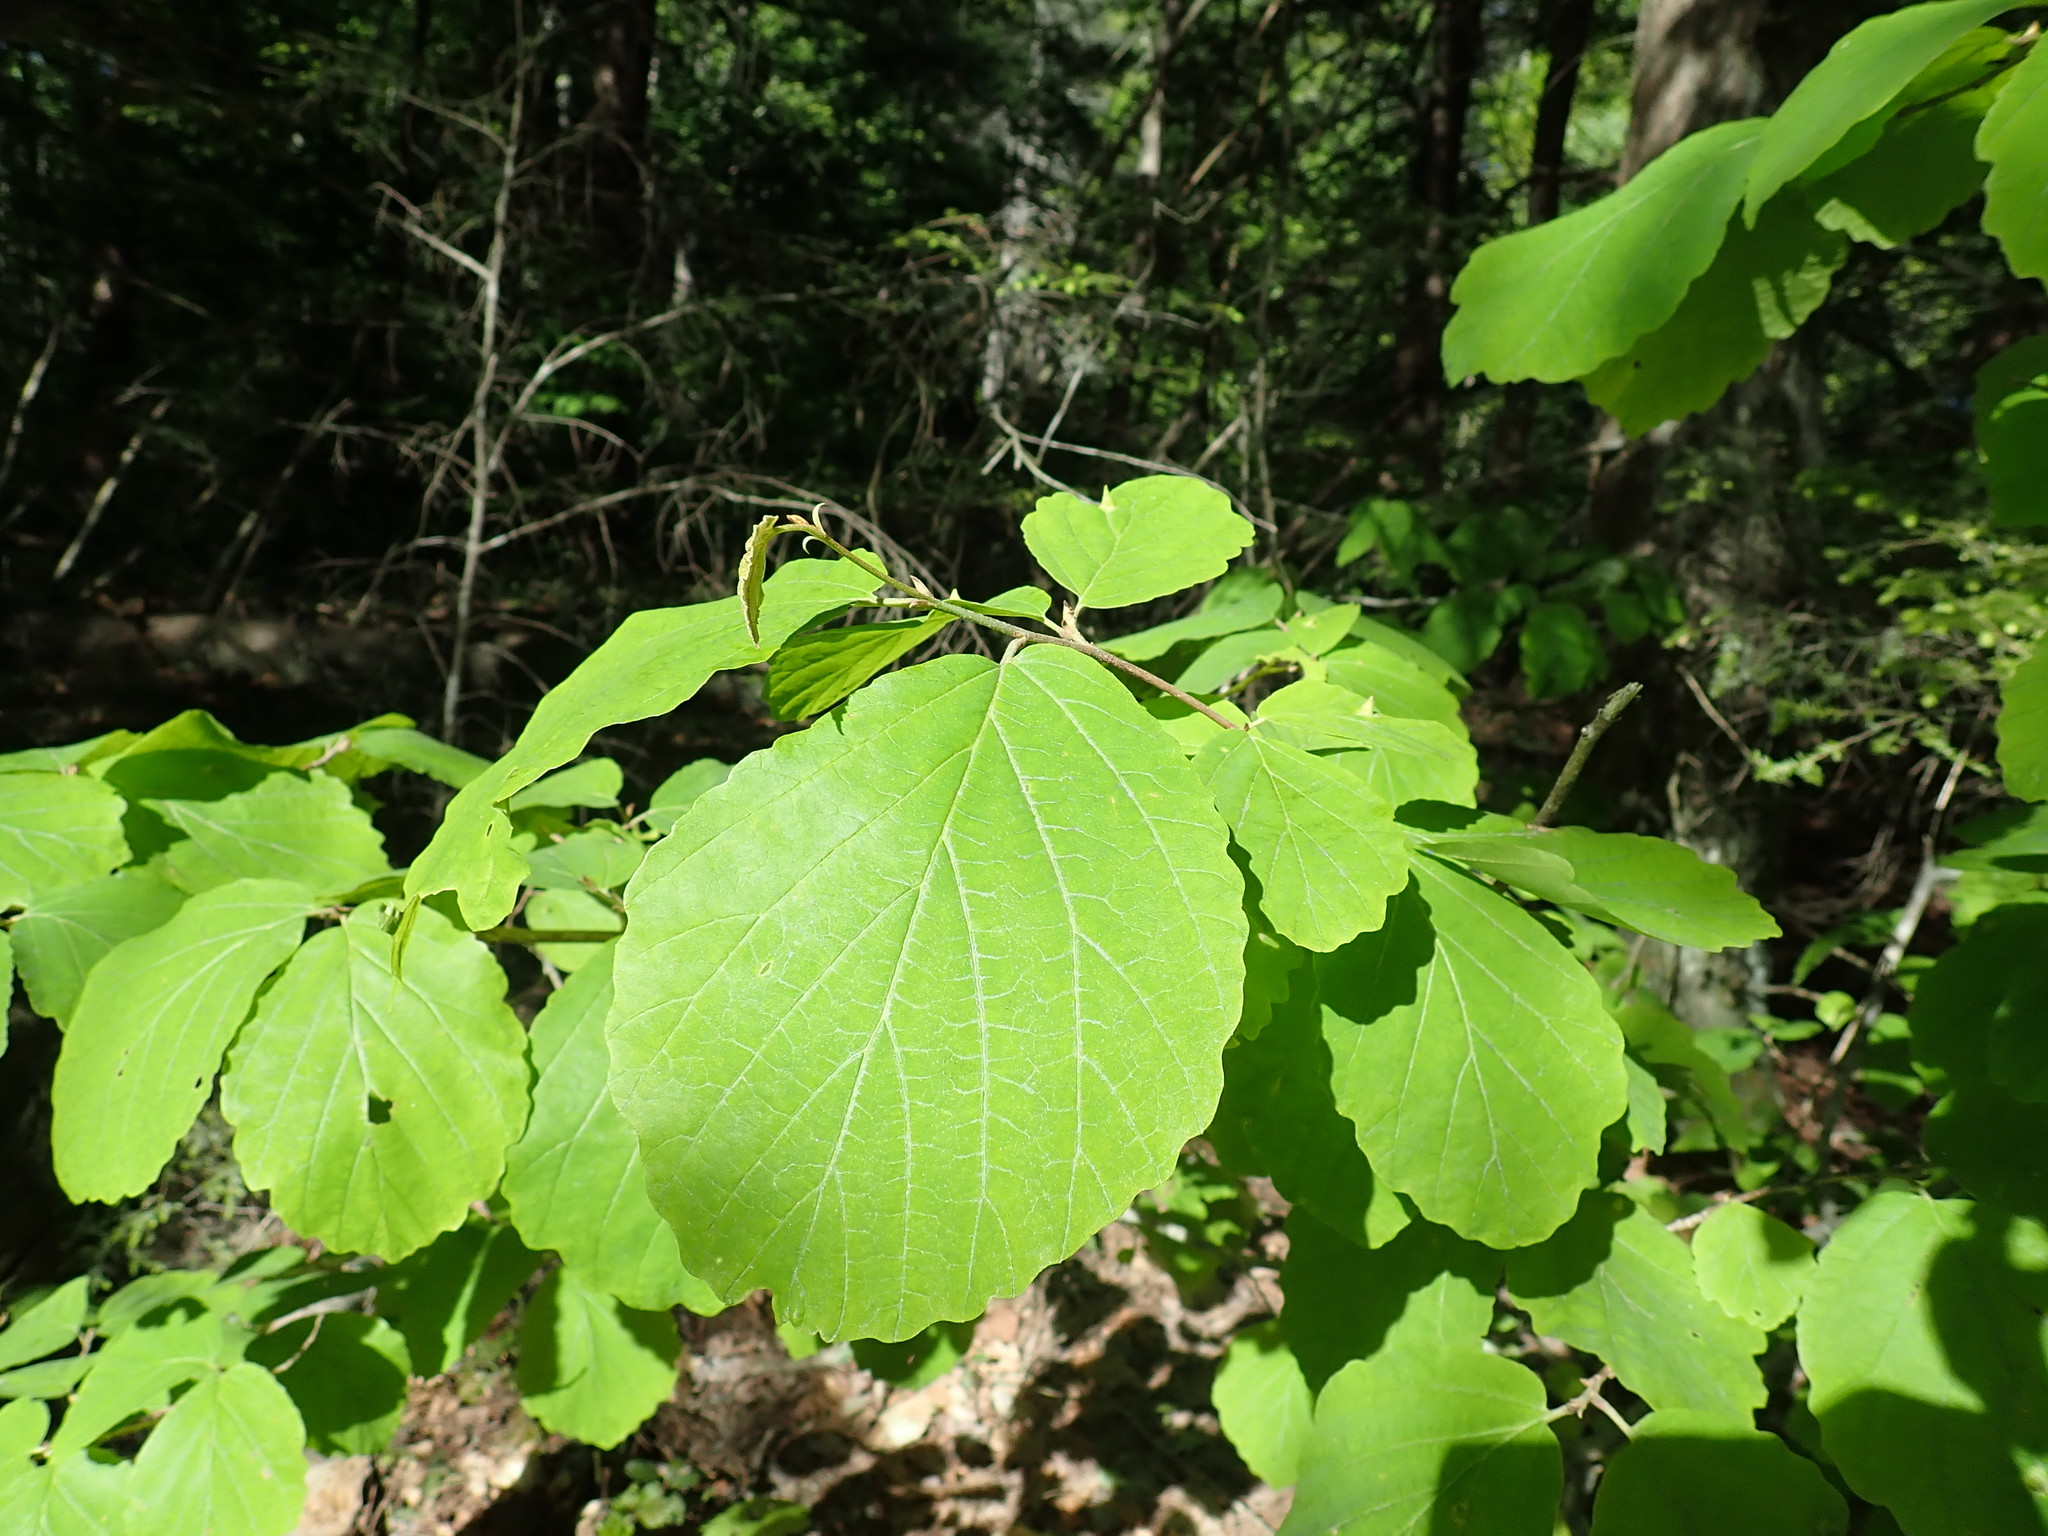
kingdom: Plantae
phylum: Tracheophyta
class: Magnoliopsida
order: Saxifragales
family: Hamamelidaceae
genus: Hamamelis
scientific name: Hamamelis virginiana
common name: Witch-hazel
